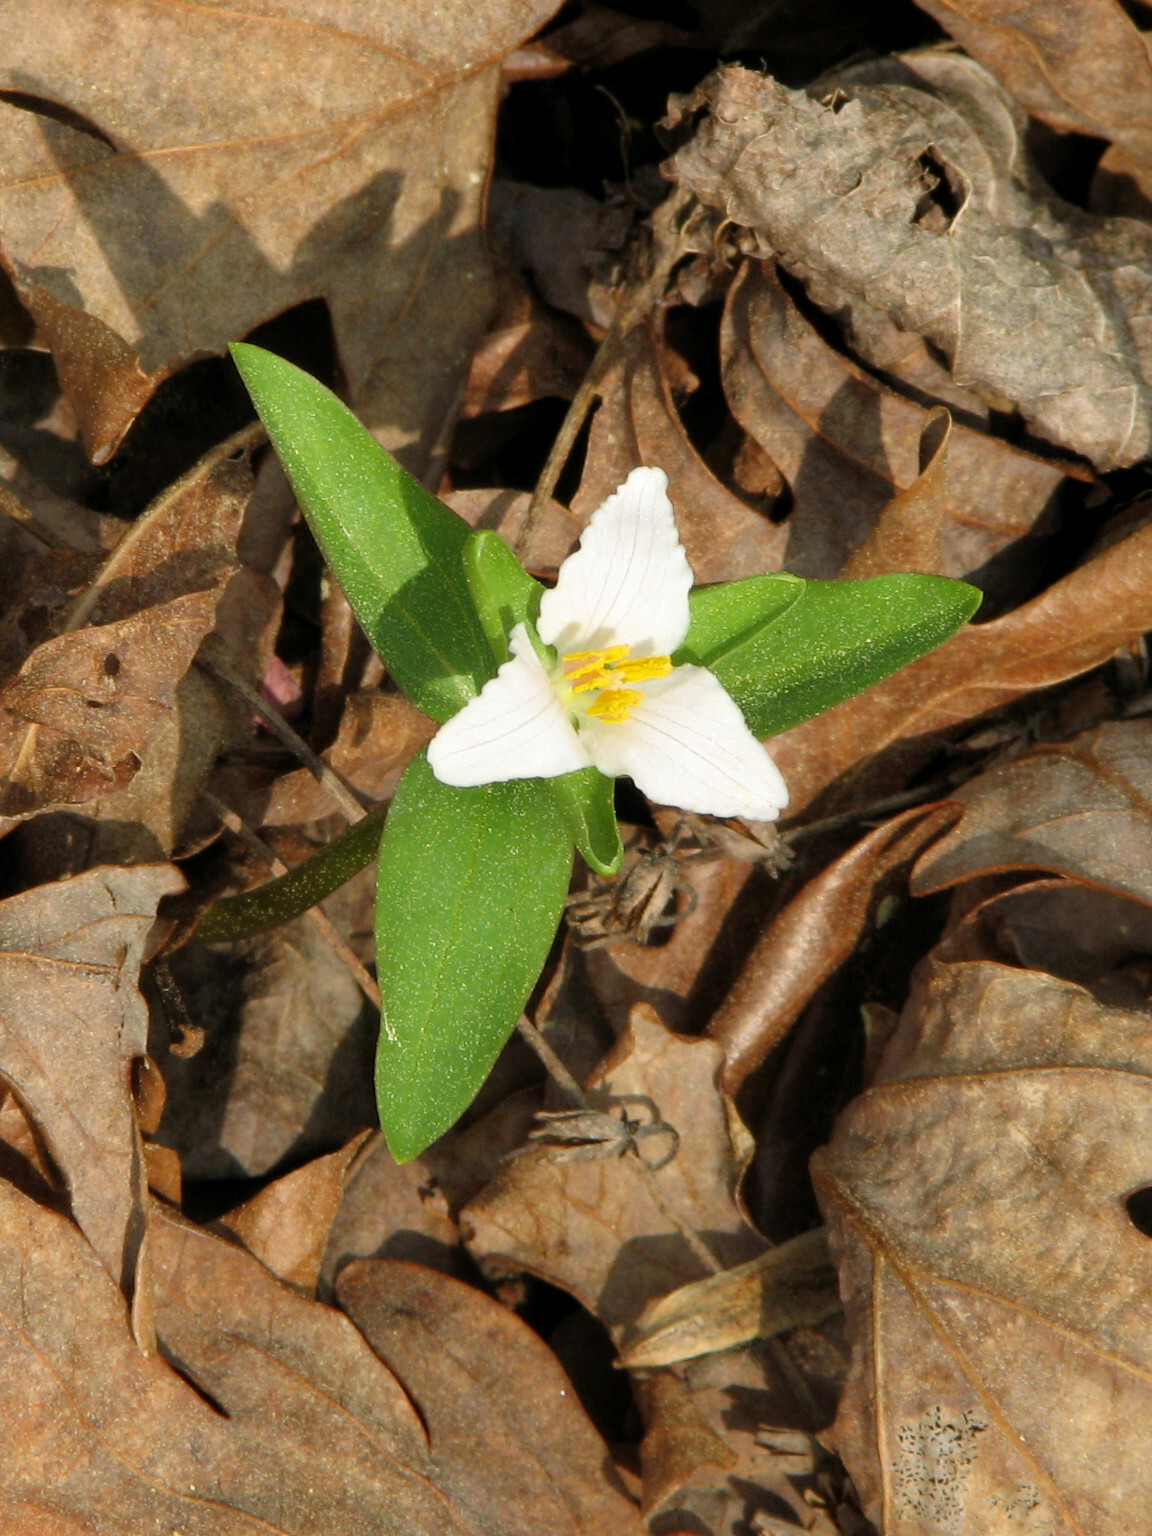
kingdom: Plantae
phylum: Tracheophyta
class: Liliopsida
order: Liliales
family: Melanthiaceae
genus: Trillium
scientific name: Trillium pusillum
